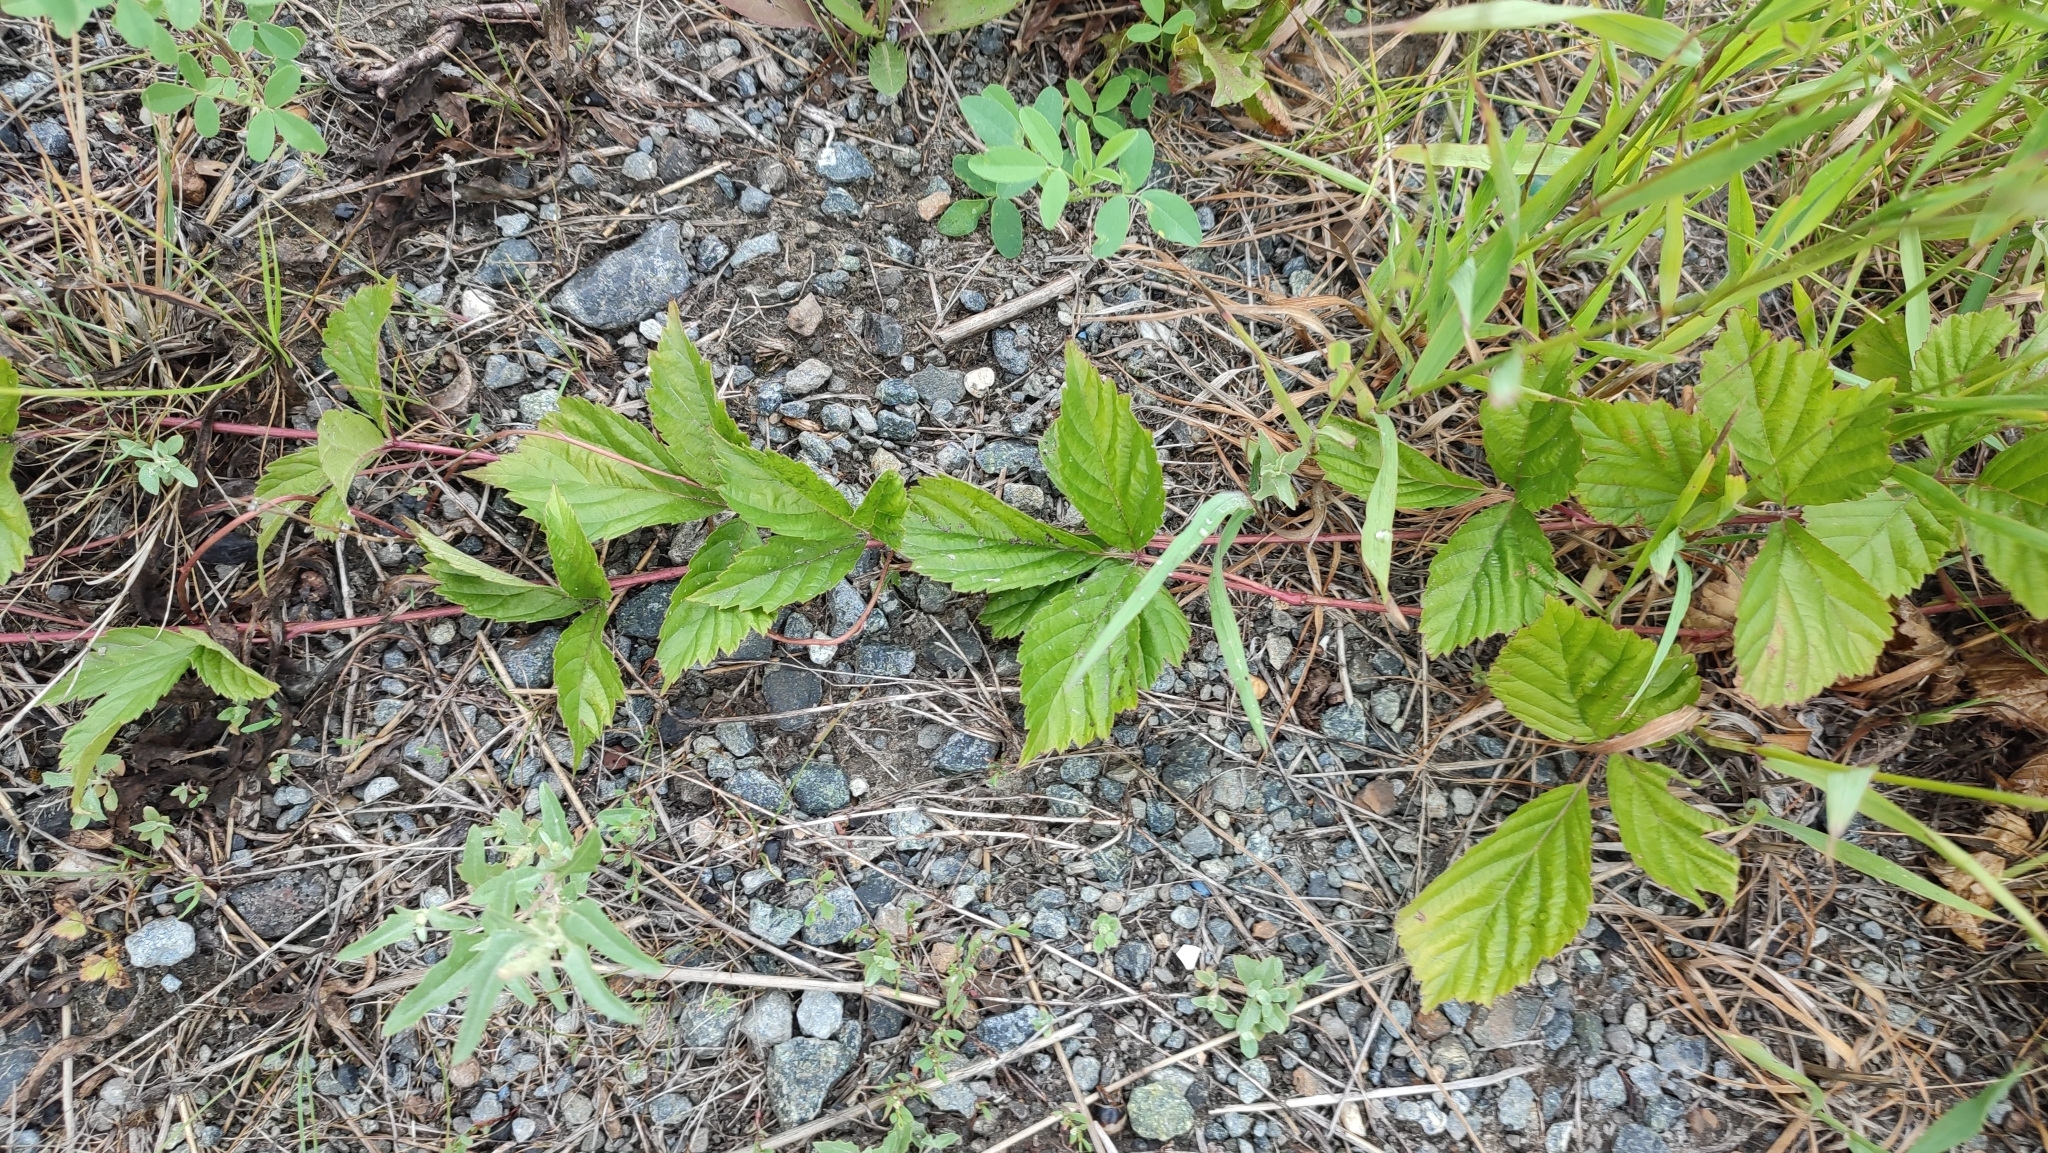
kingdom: Plantae
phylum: Tracheophyta
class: Magnoliopsida
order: Rosales
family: Rosaceae
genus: Rubus
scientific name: Rubus saxatilis
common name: Stone bramble
